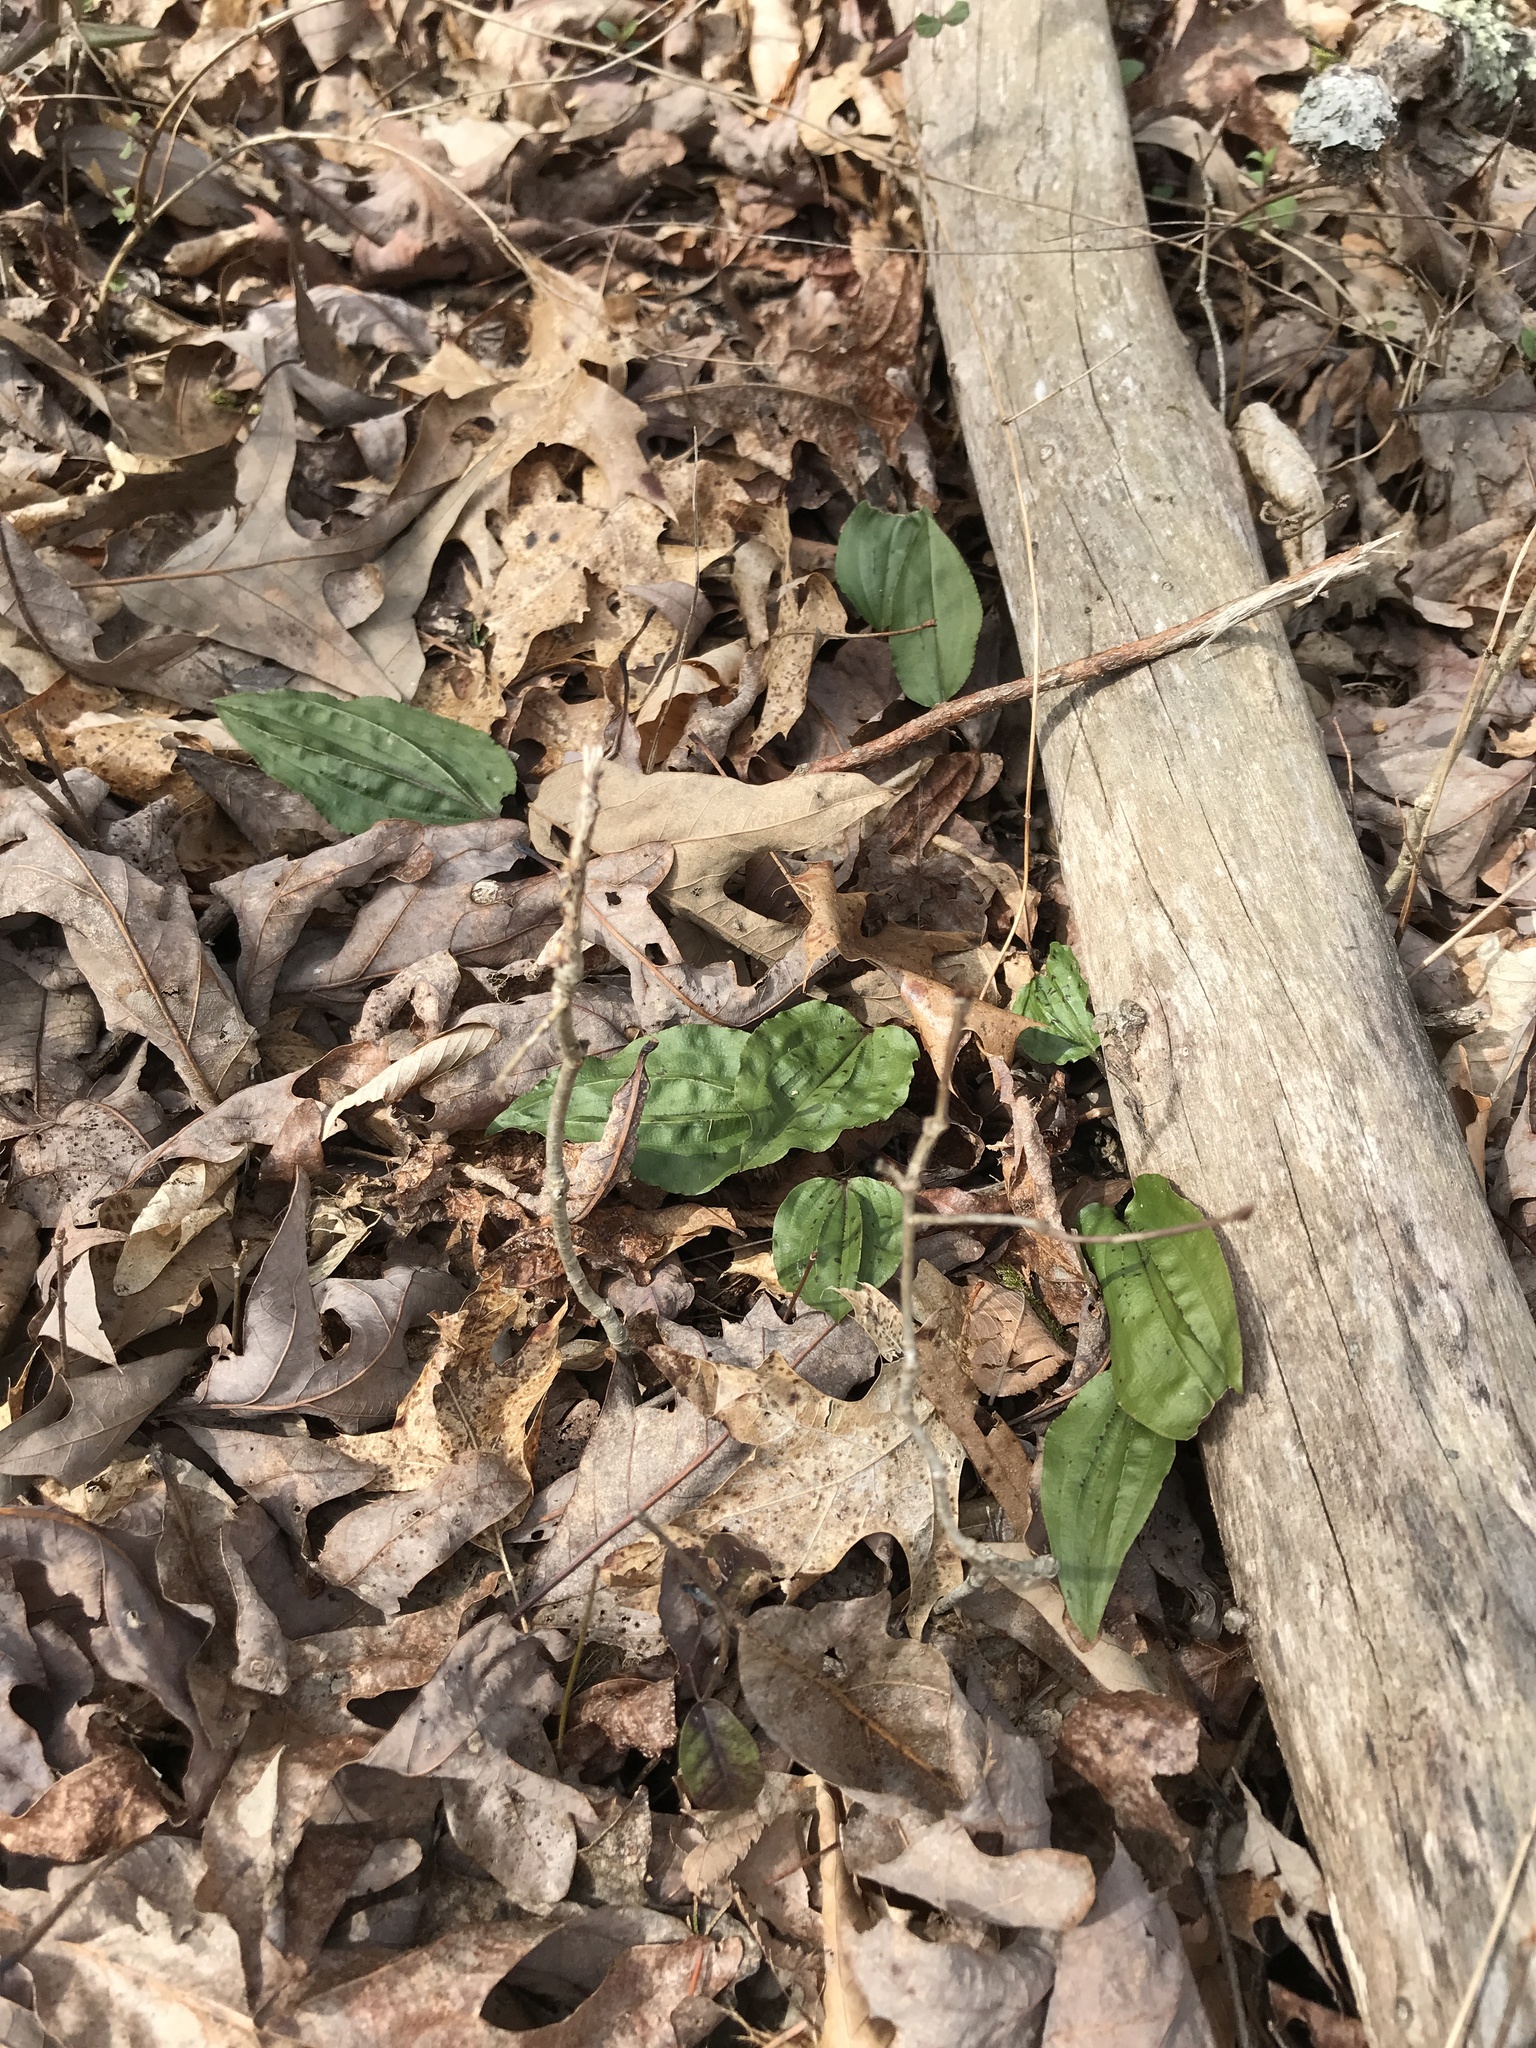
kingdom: Plantae
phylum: Tracheophyta
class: Liliopsida
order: Asparagales
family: Orchidaceae
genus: Tipularia
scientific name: Tipularia discolor
